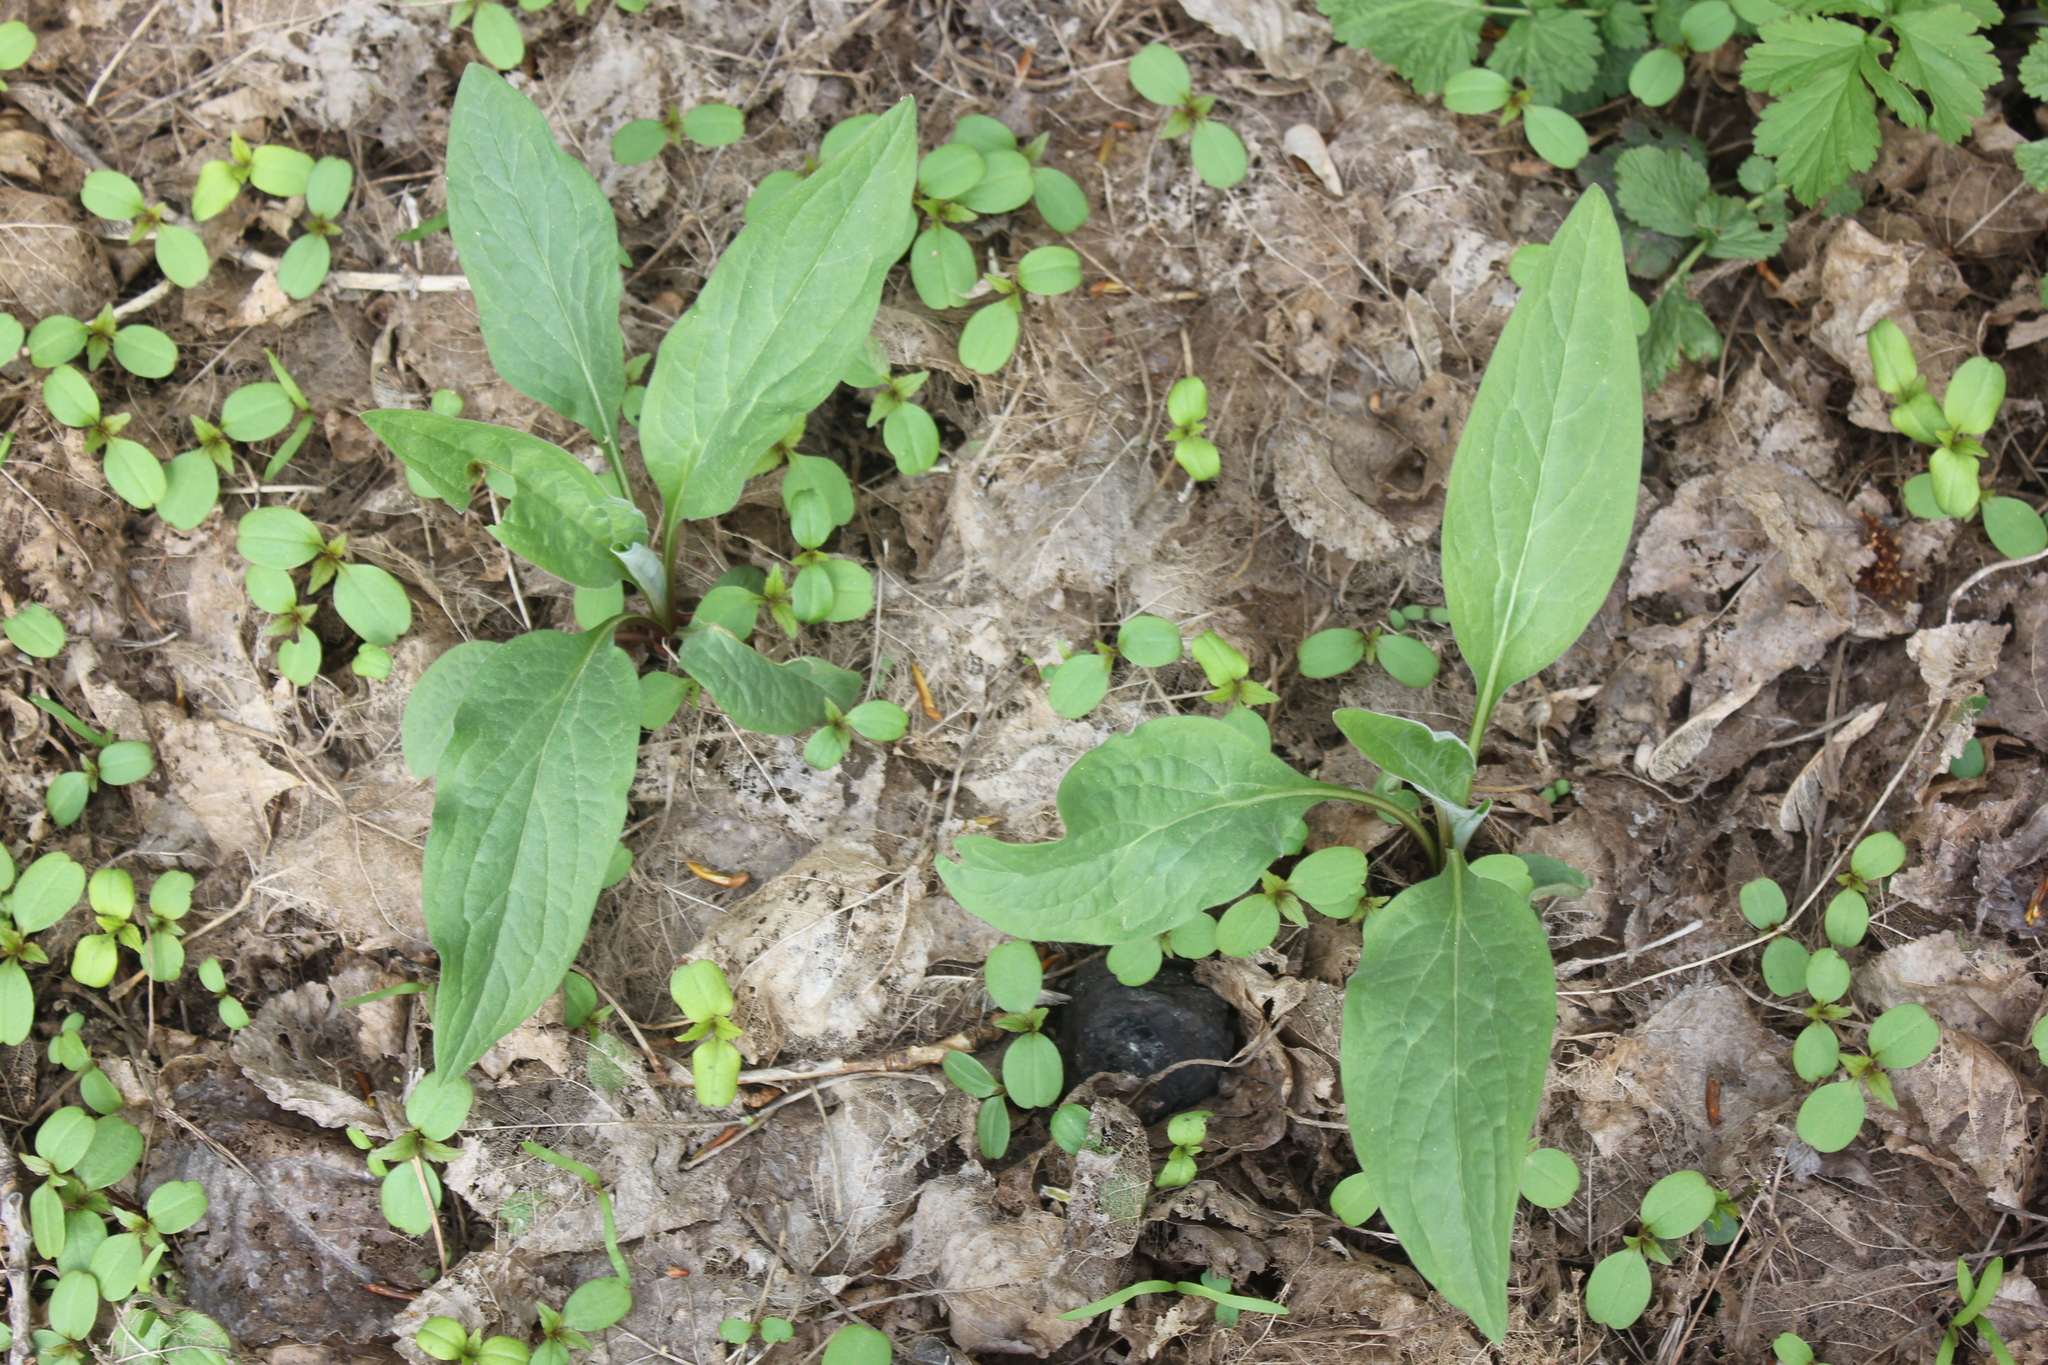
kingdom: Plantae
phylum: Tracheophyta
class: Magnoliopsida
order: Boraginales
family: Boraginaceae
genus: Cynoglossum
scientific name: Cynoglossum officinale
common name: Hound's-tongue
